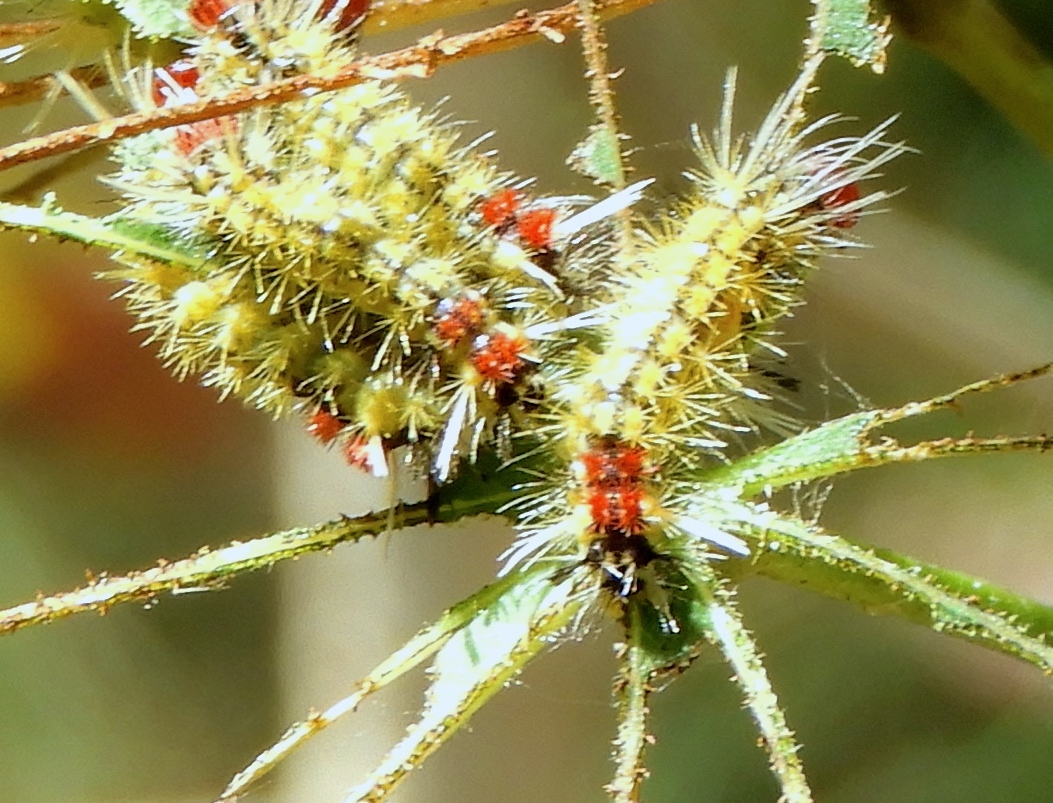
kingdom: Animalia
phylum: Arthropoda
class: Insecta
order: Lepidoptera
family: Erebidae
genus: Lophocampa
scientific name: Lophocampa
